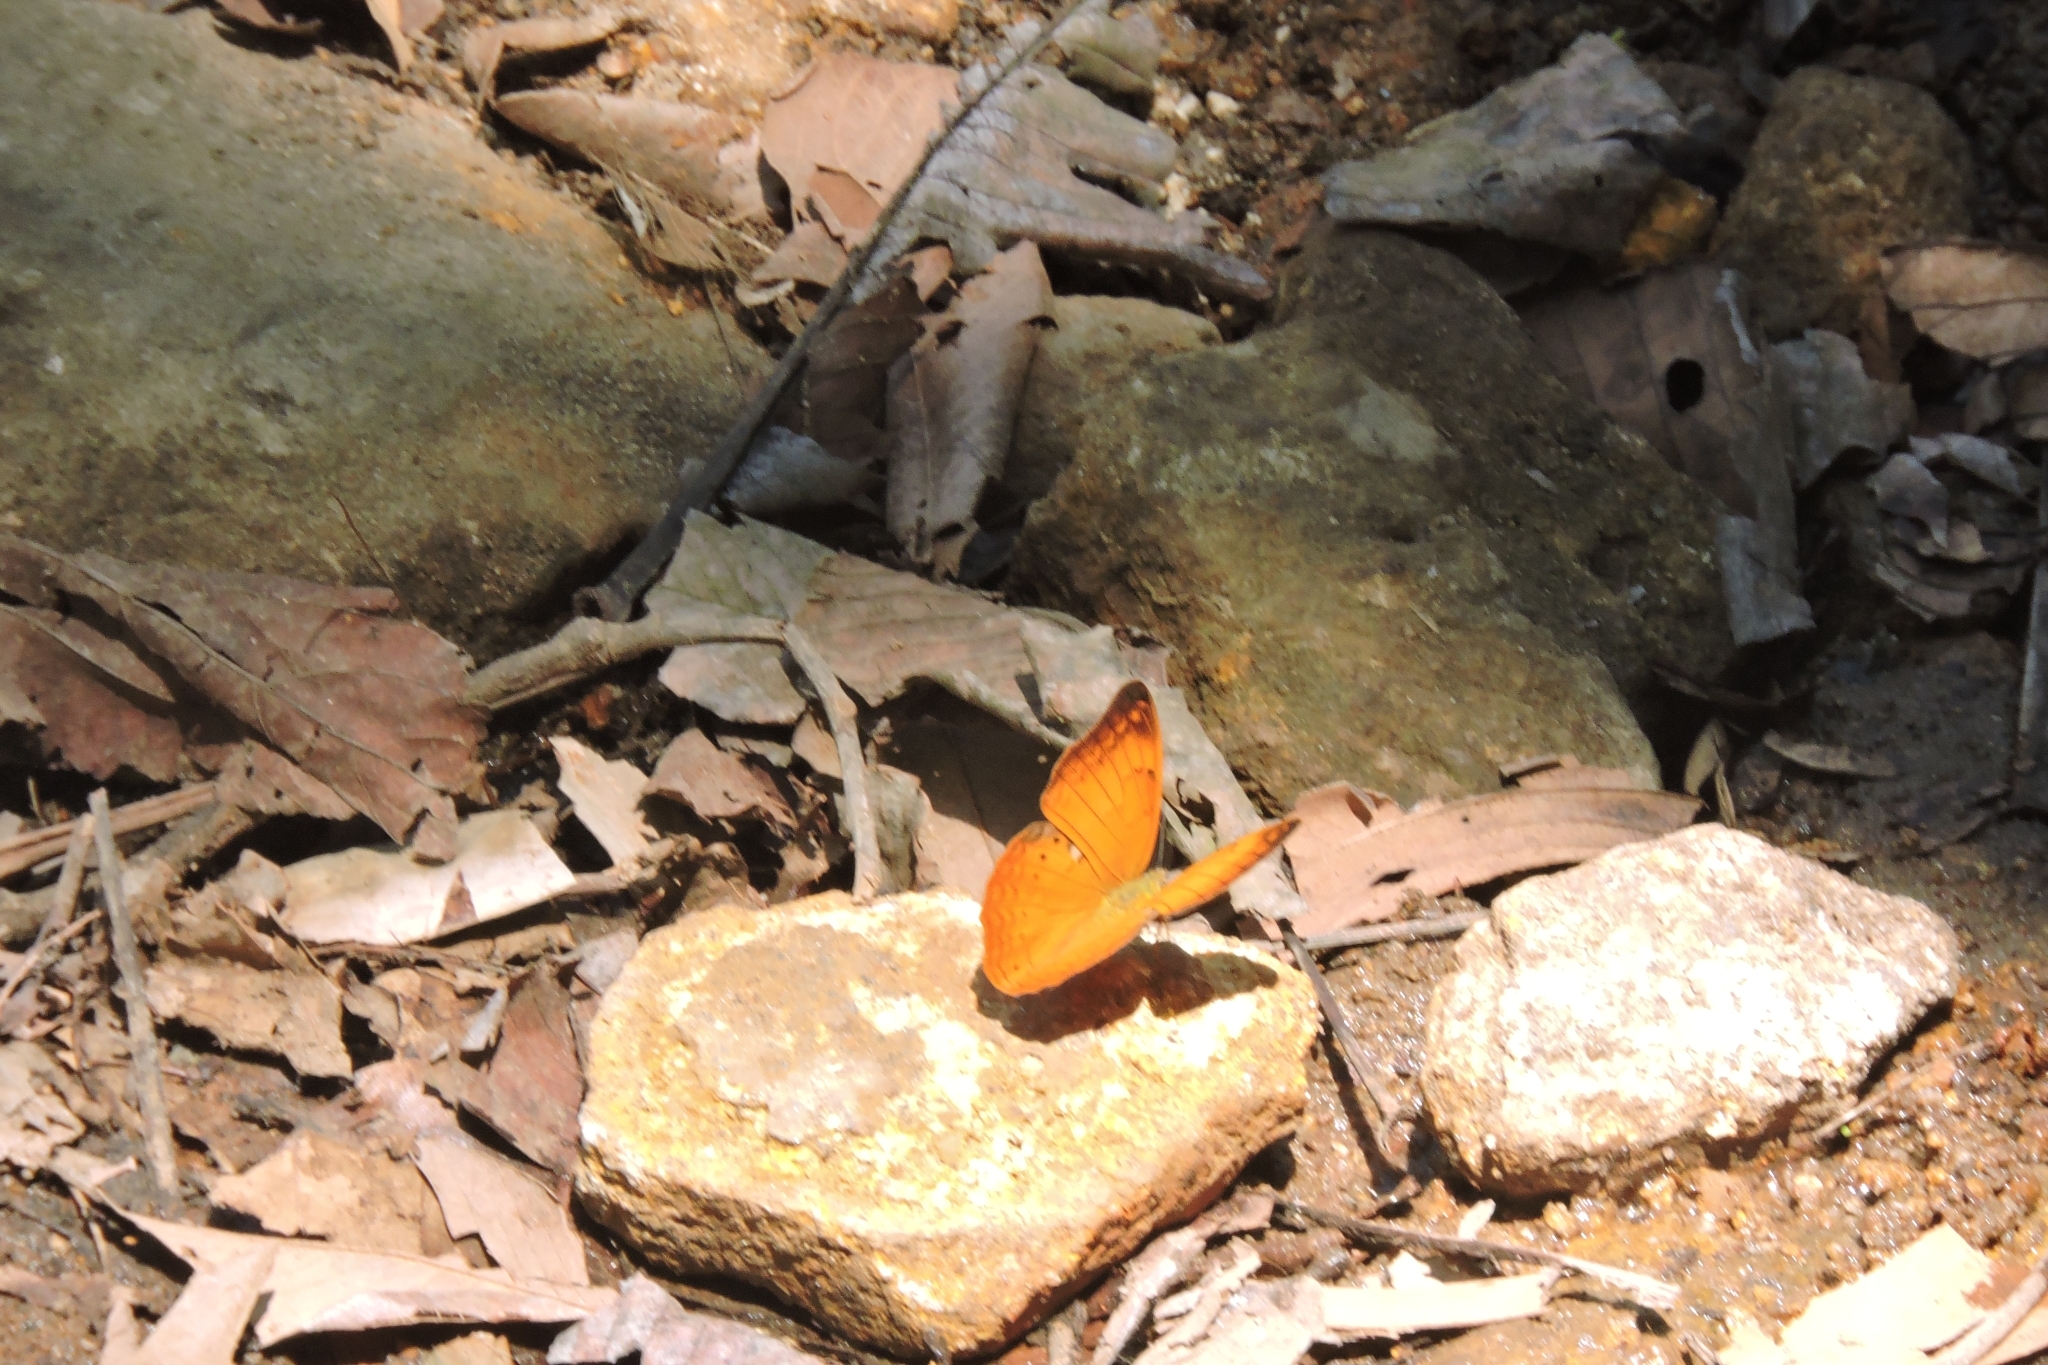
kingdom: Animalia
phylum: Arthropoda
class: Insecta
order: Lepidoptera
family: Nymphalidae
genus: Cirrochroa
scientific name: Cirrochroa thais
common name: Tamil yeoman
